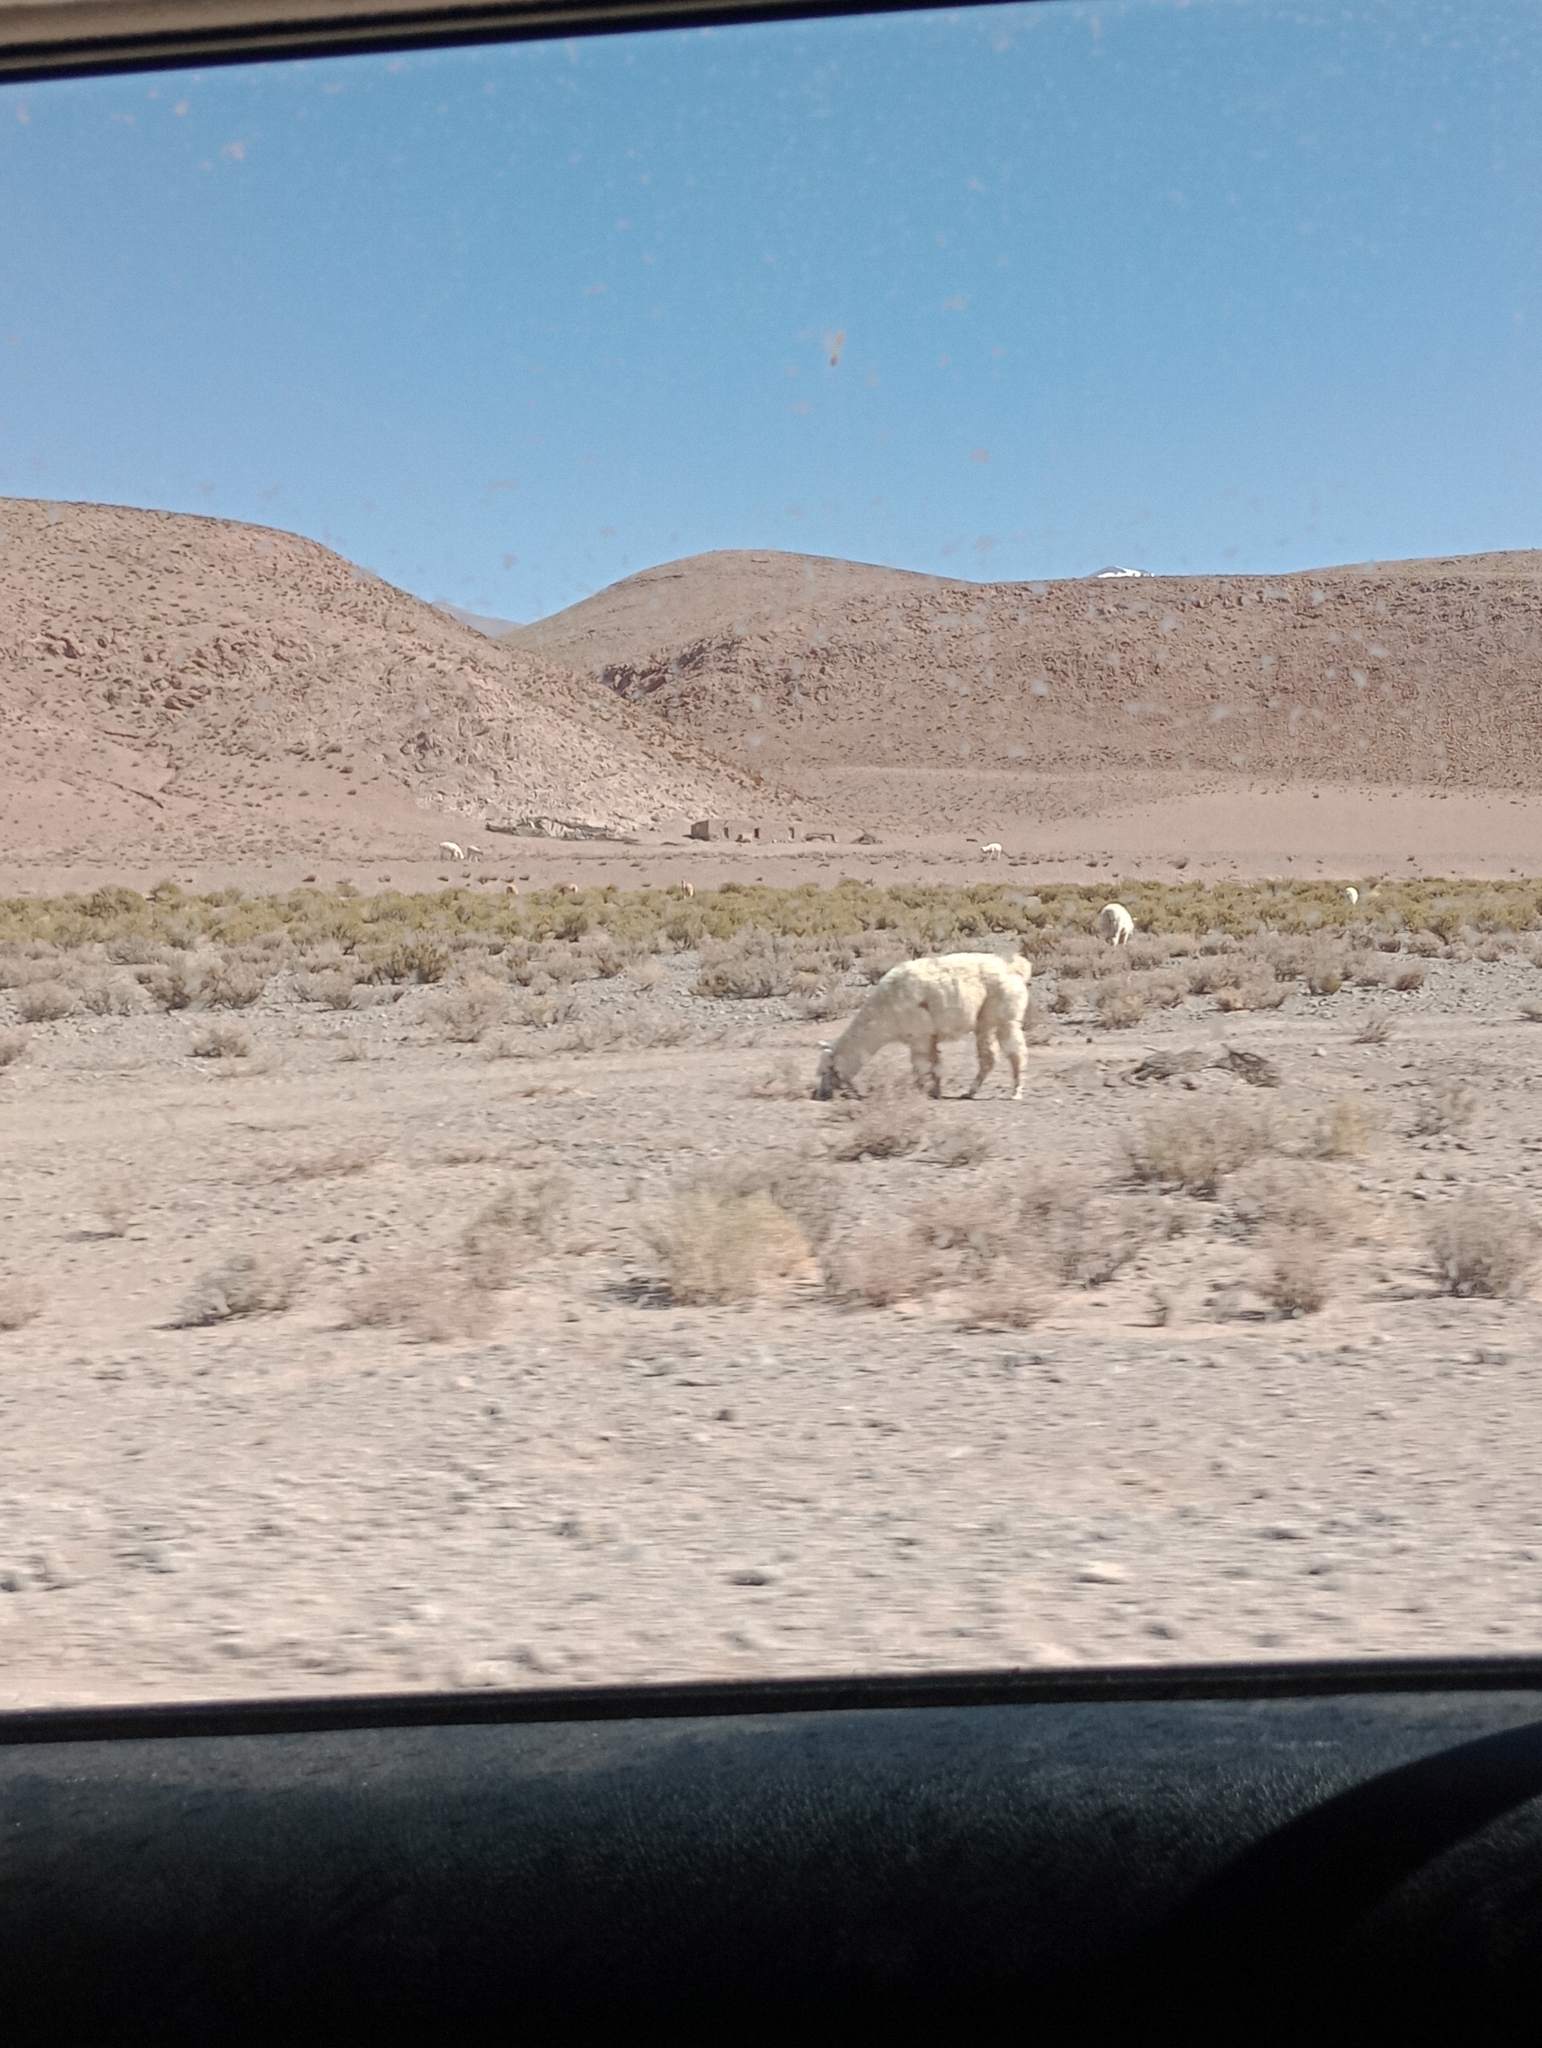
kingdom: Animalia
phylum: Chordata
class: Mammalia
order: Artiodactyla
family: Camelidae
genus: Lama
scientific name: Lama glama
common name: Llama
